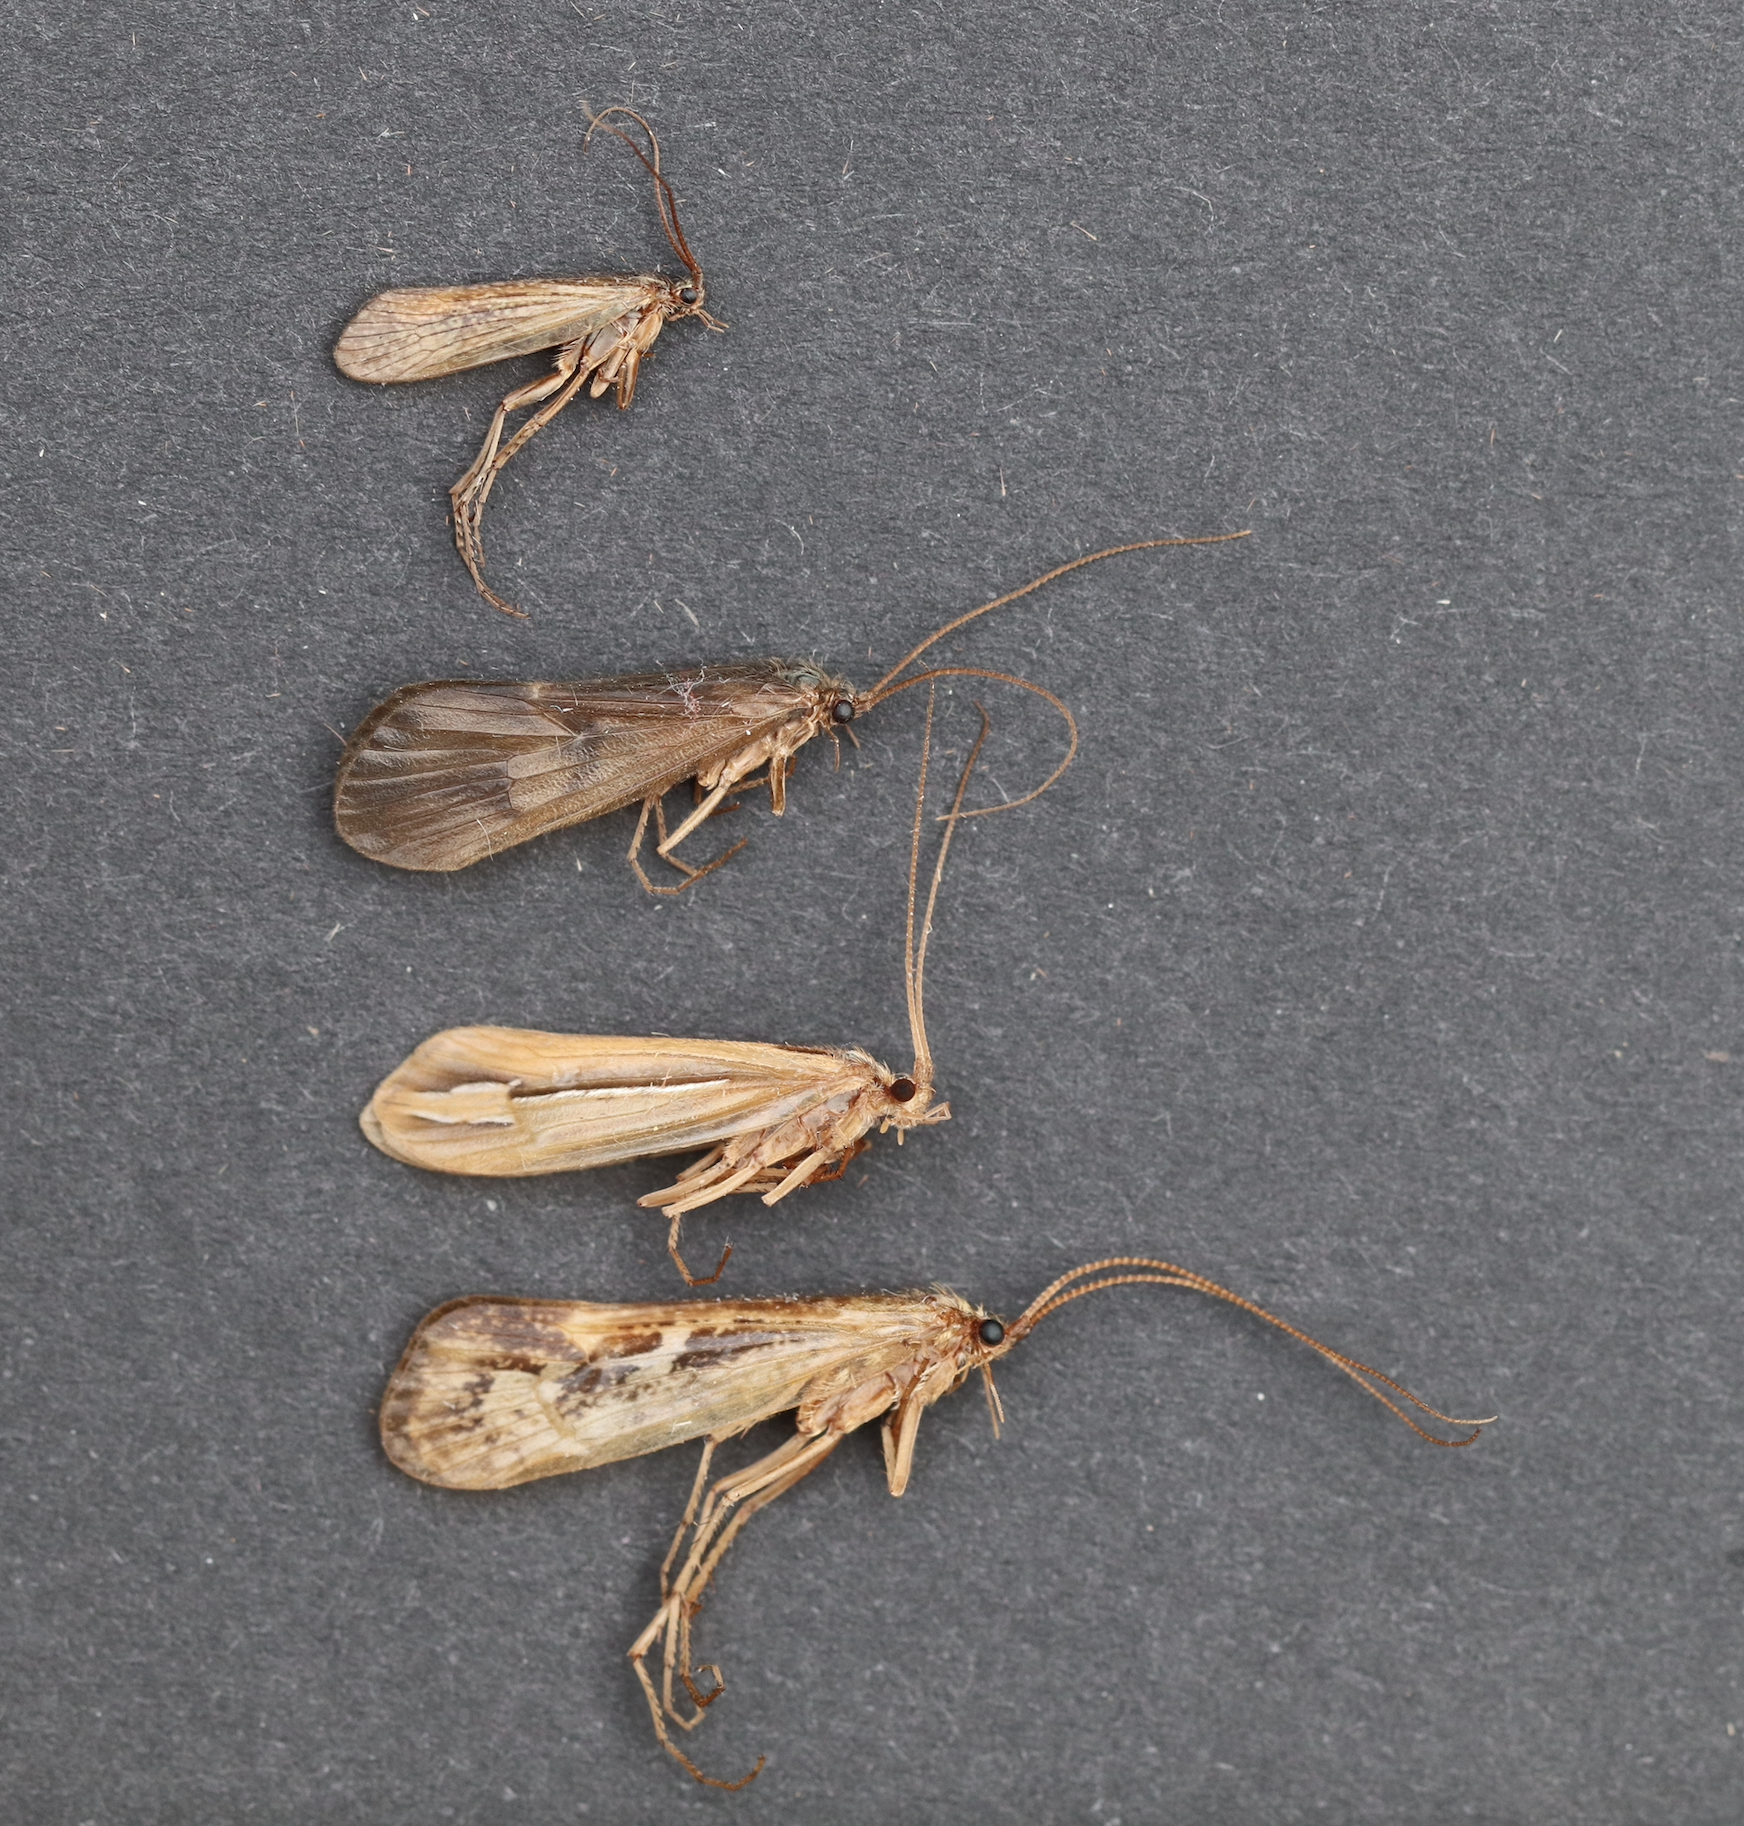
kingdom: Animalia
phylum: Arthropoda
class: Insecta
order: Trichoptera
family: Limnephilidae
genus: Limnephilus
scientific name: Limnephilus externus
